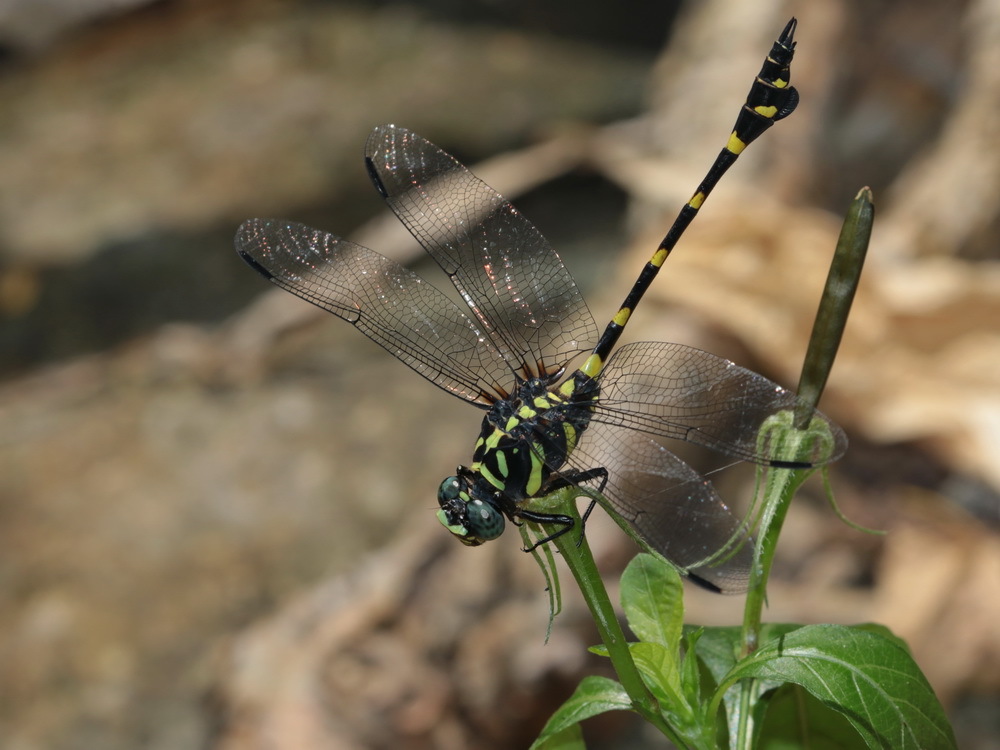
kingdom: Animalia
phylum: Arthropoda
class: Insecta
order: Odonata
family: Gomphidae
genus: Ictinogomphus
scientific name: Ictinogomphus decoratus
